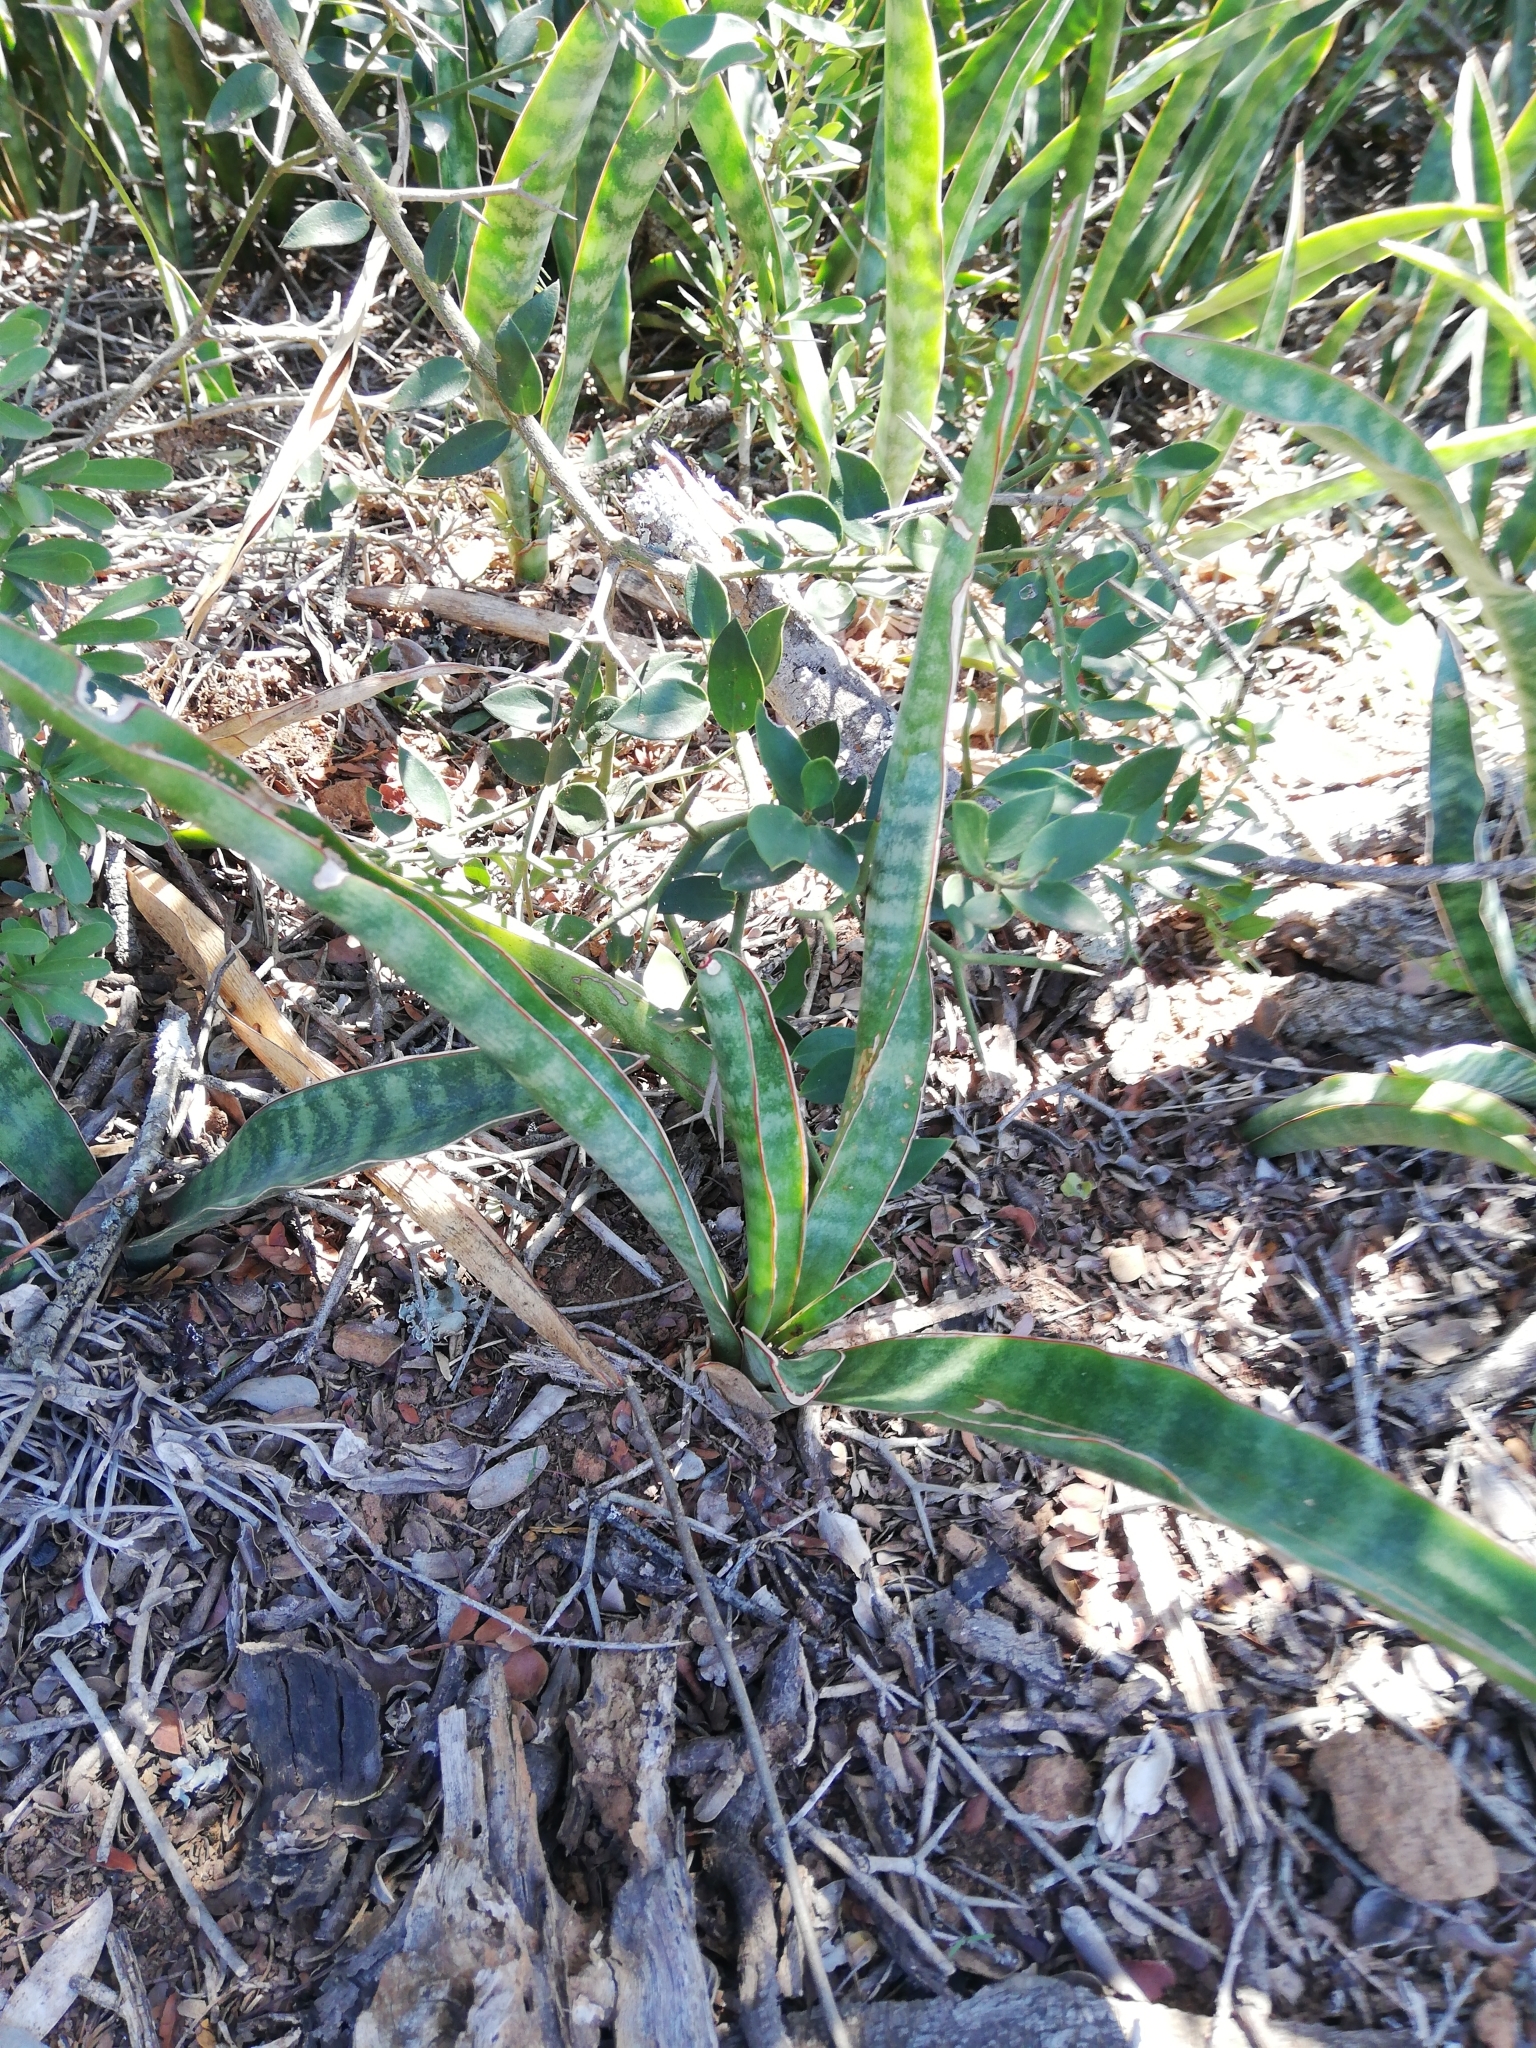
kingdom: Plantae
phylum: Tracheophyta
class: Liliopsida
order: Asparagales
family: Asparagaceae
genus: Dracaena
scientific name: Dracaena hyacinthoides
